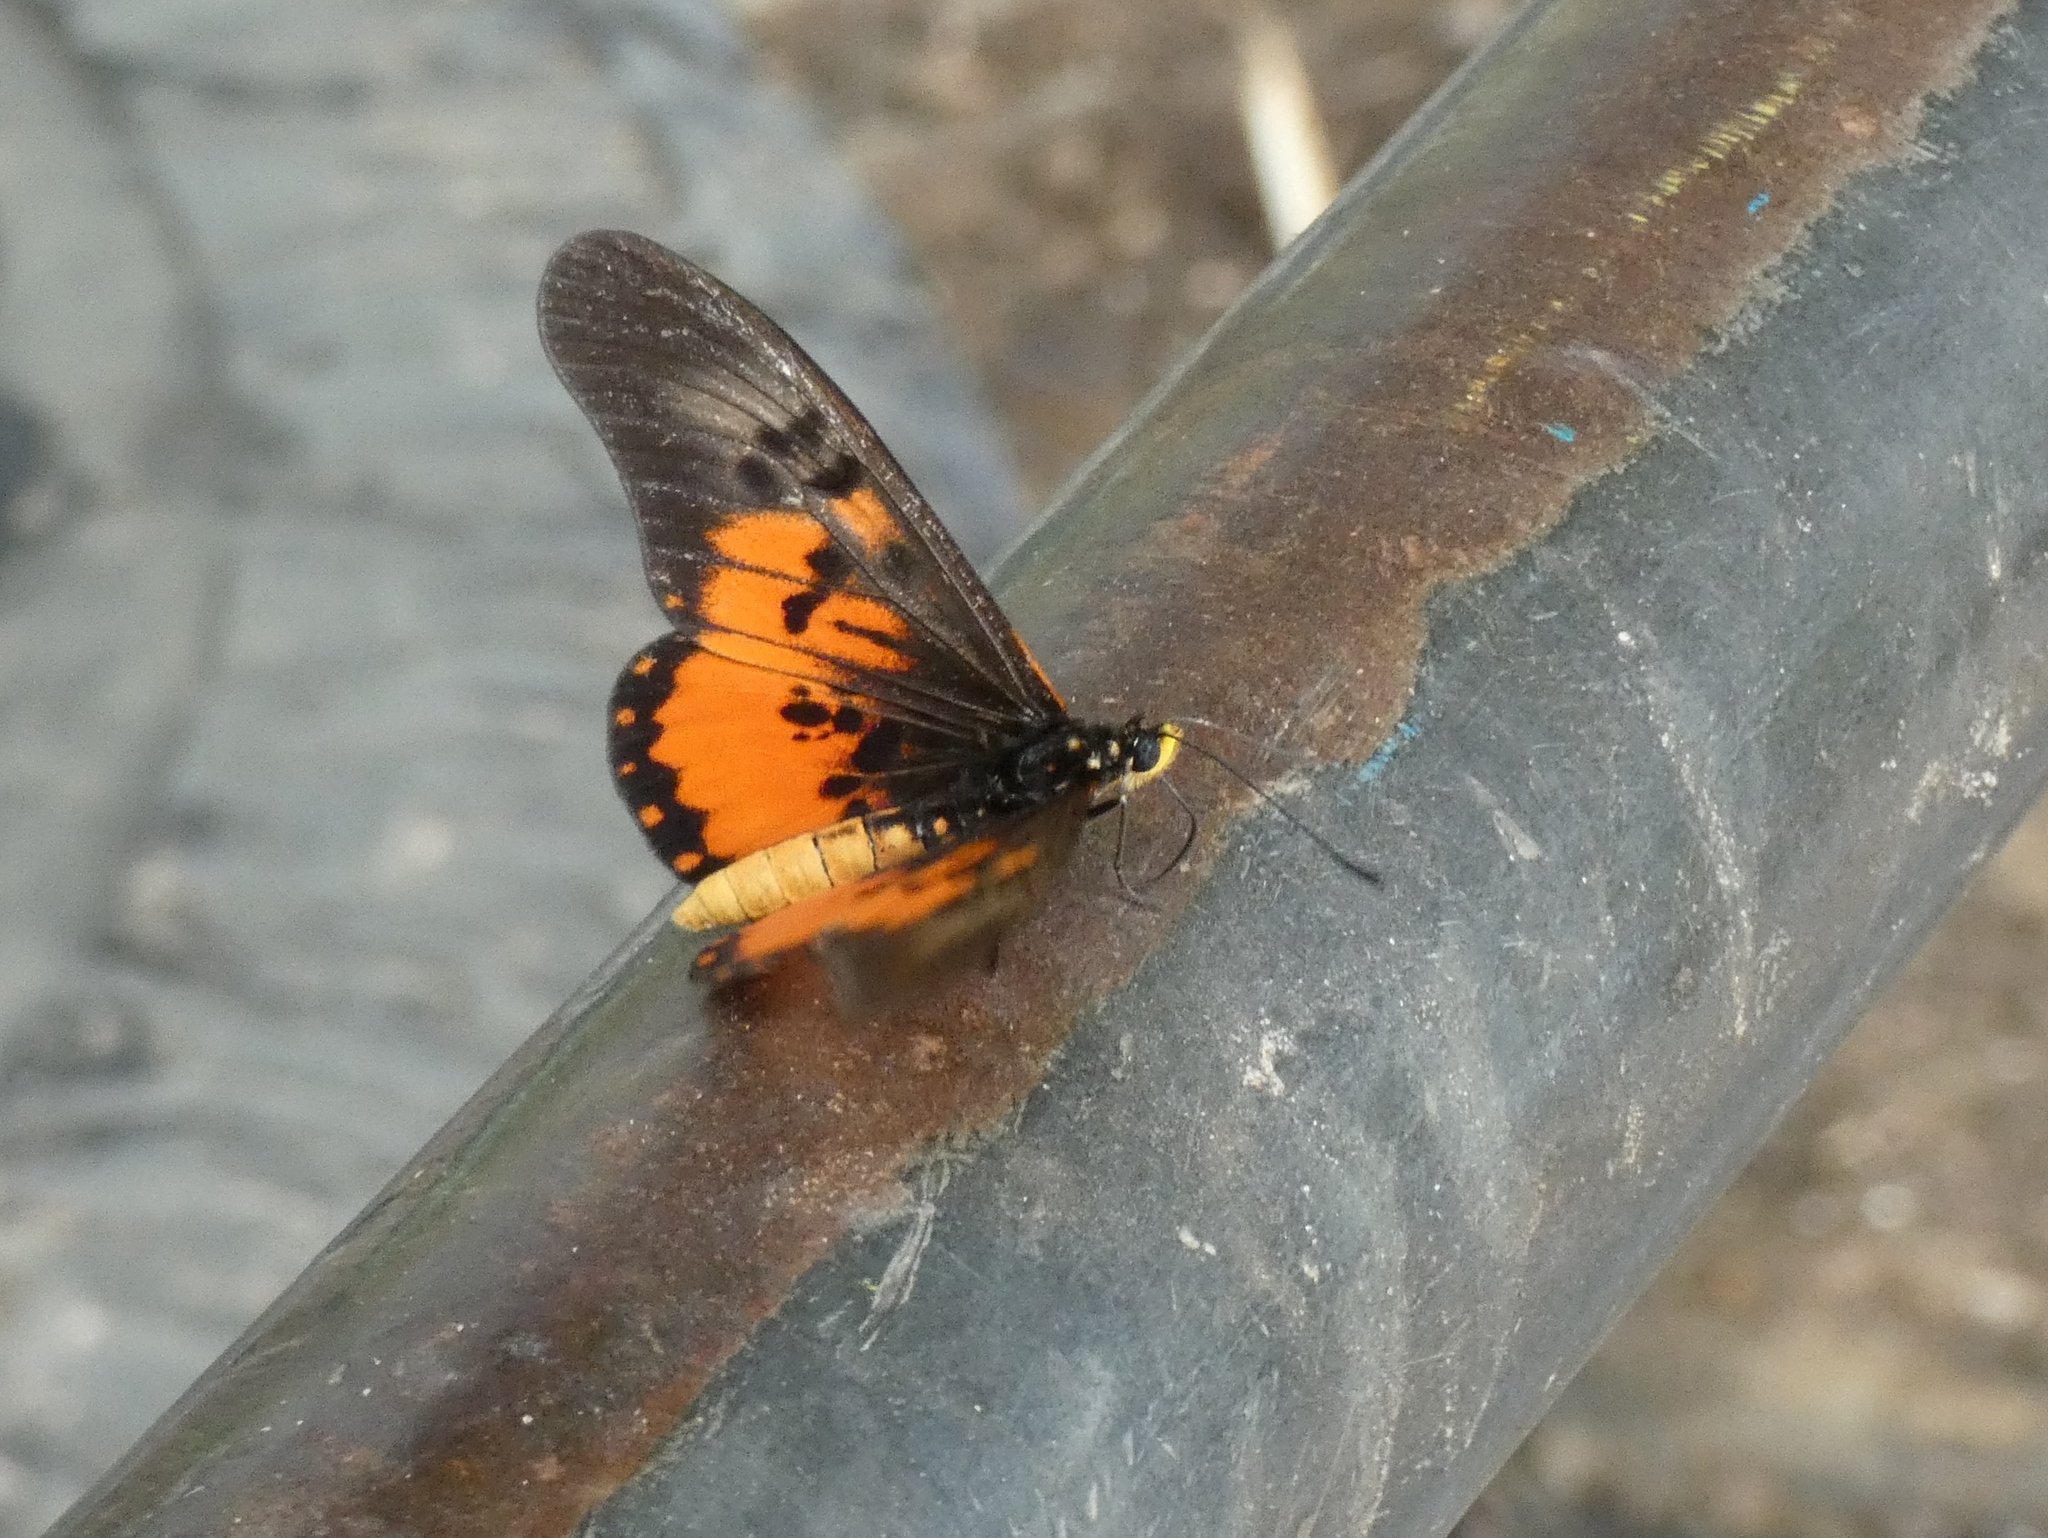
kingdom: Animalia
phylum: Arthropoda
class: Insecta
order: Lepidoptera
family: Nymphalidae
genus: Acraea
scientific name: Acraea
